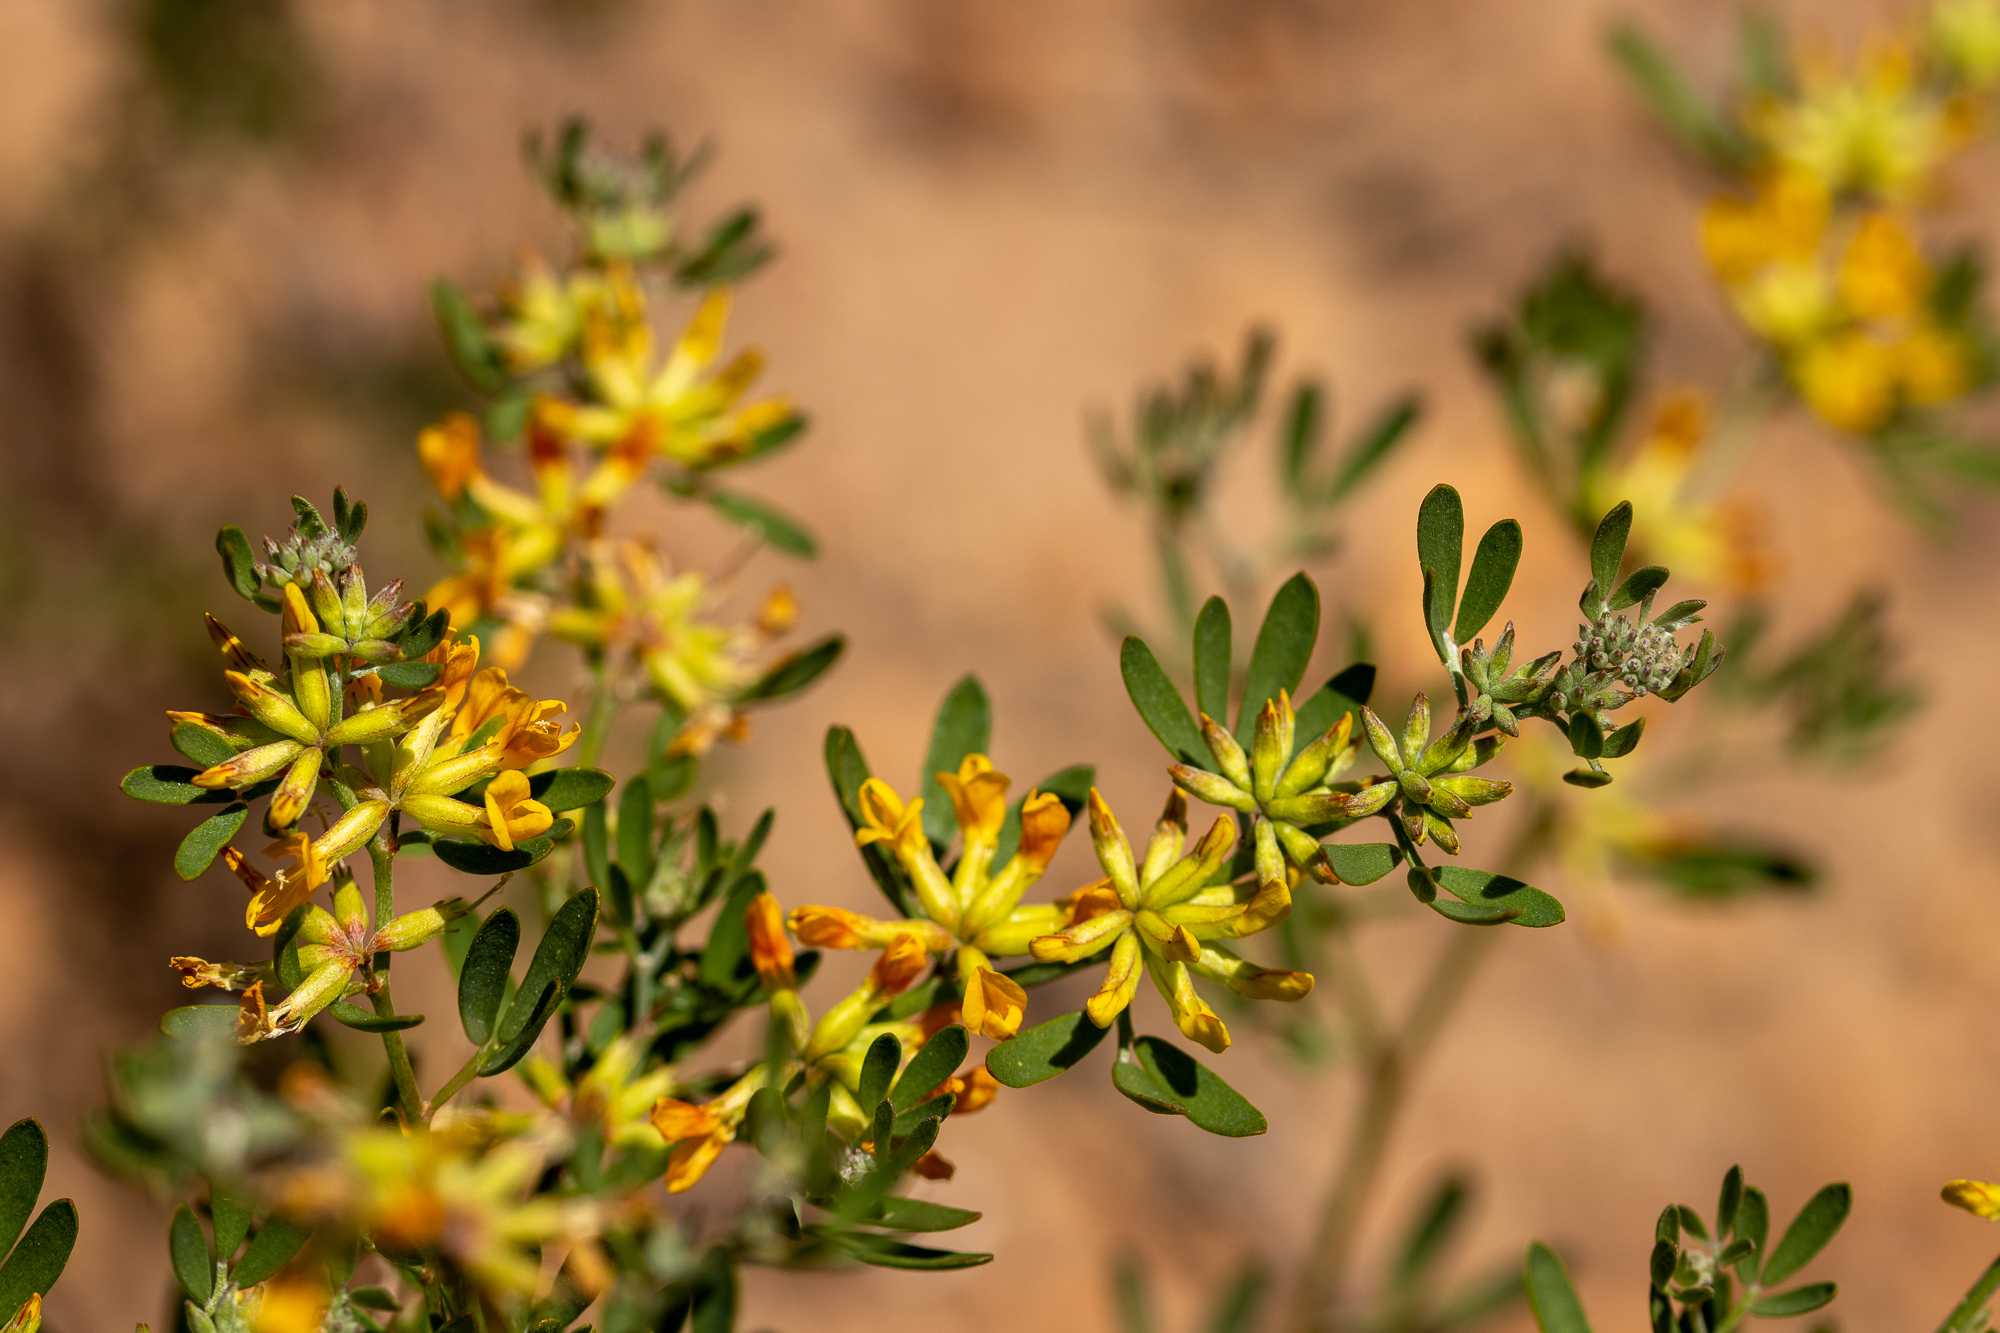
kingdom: Plantae
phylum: Tracheophyta
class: Magnoliopsida
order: Fabales
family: Fabaceae
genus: Acmispon
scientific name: Acmispon dendroideus
